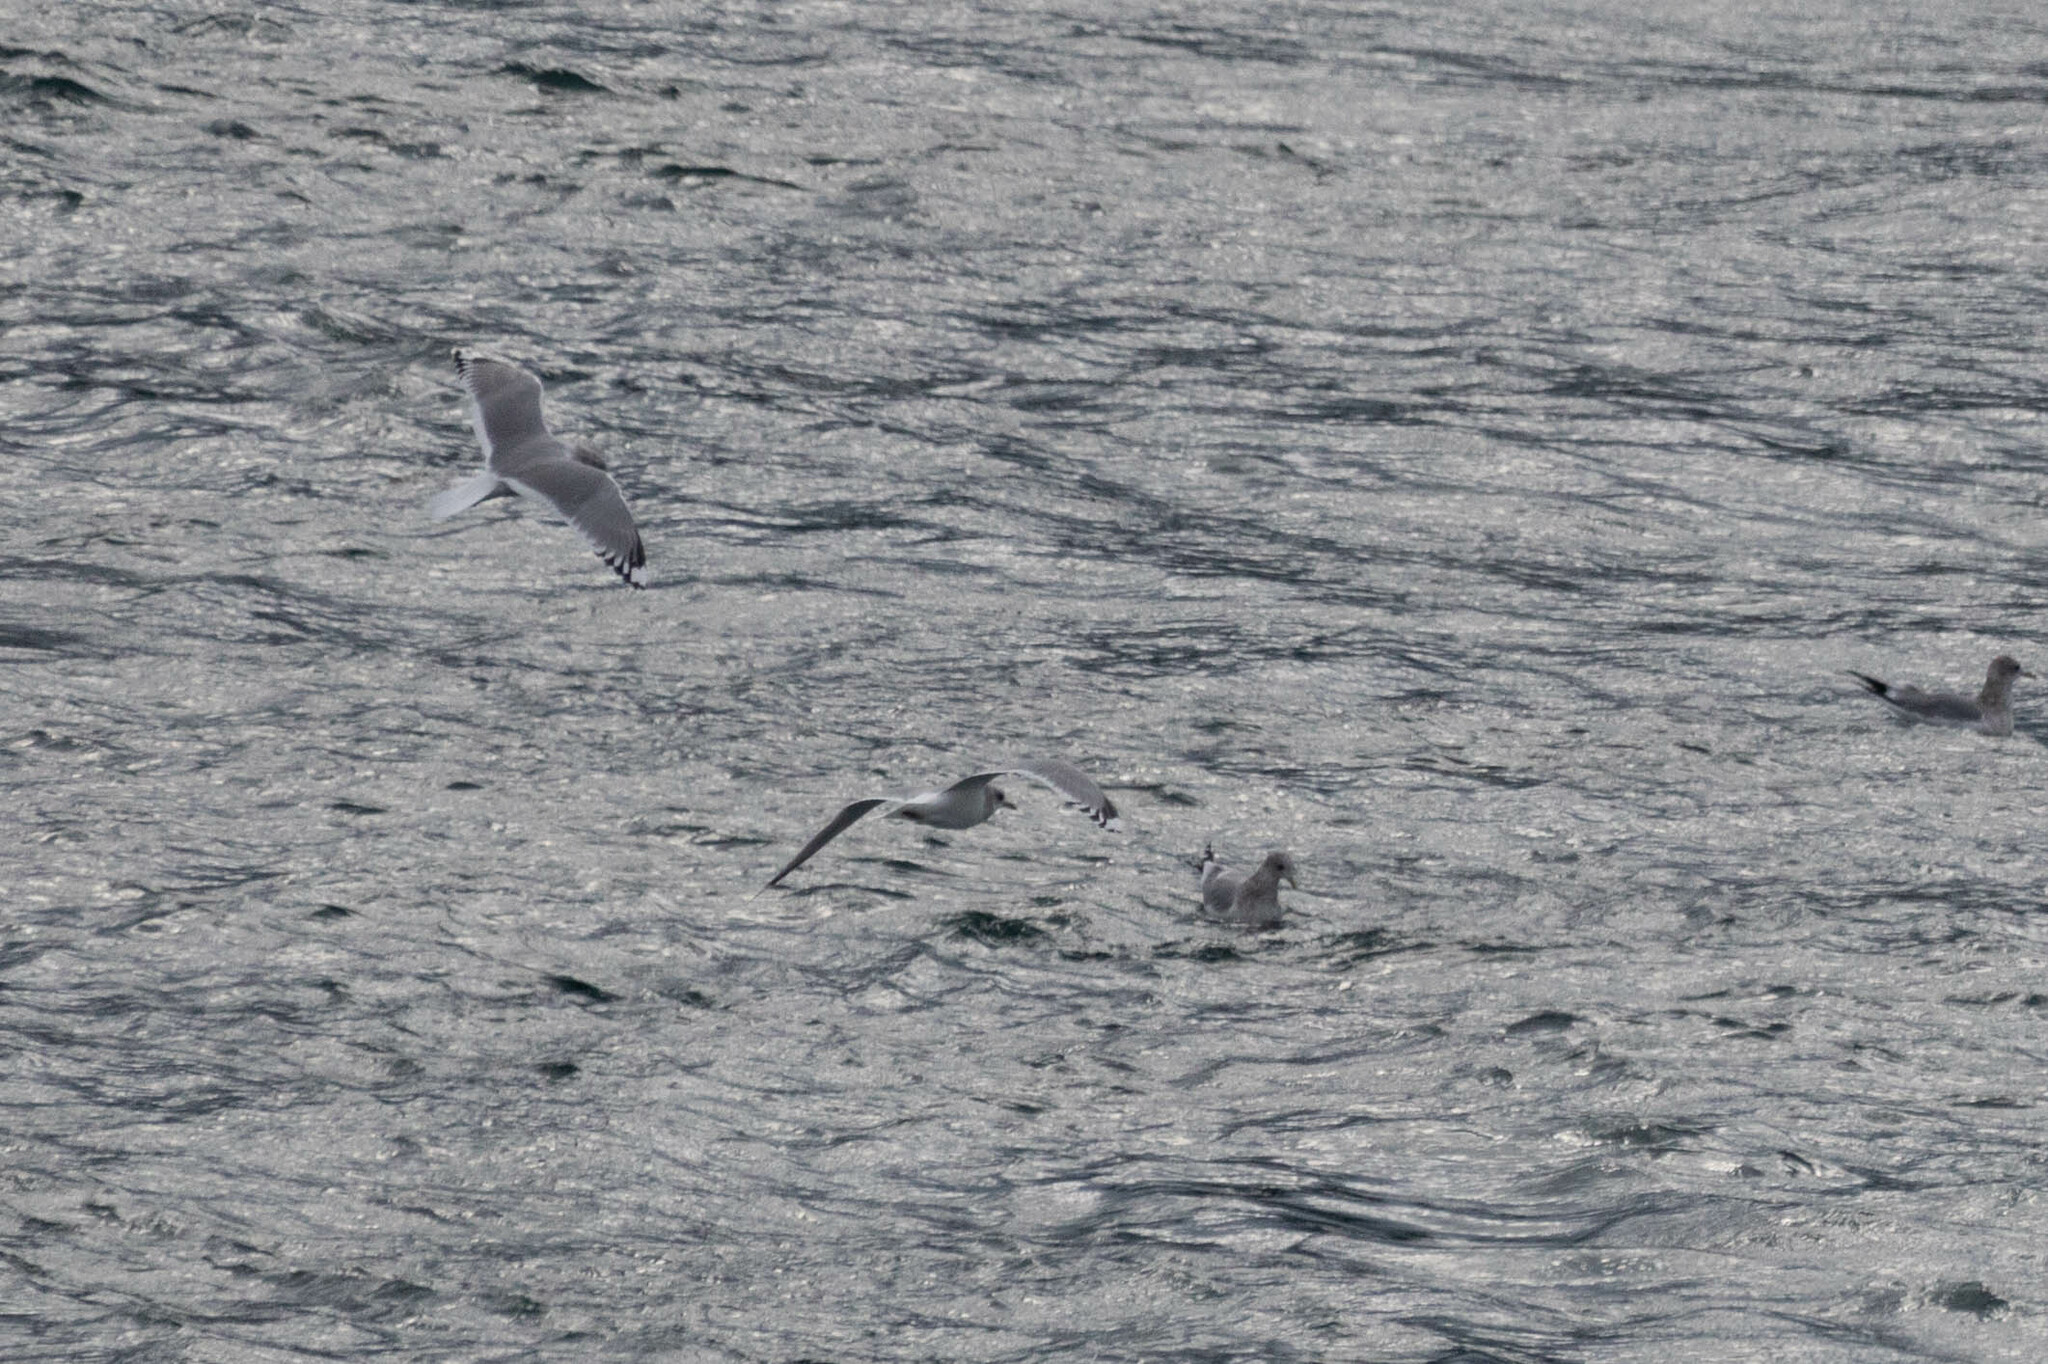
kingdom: Animalia
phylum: Chordata
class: Aves
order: Charadriiformes
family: Laridae
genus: Larus
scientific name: Larus brachyrhynchus
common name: Short-billed gull
